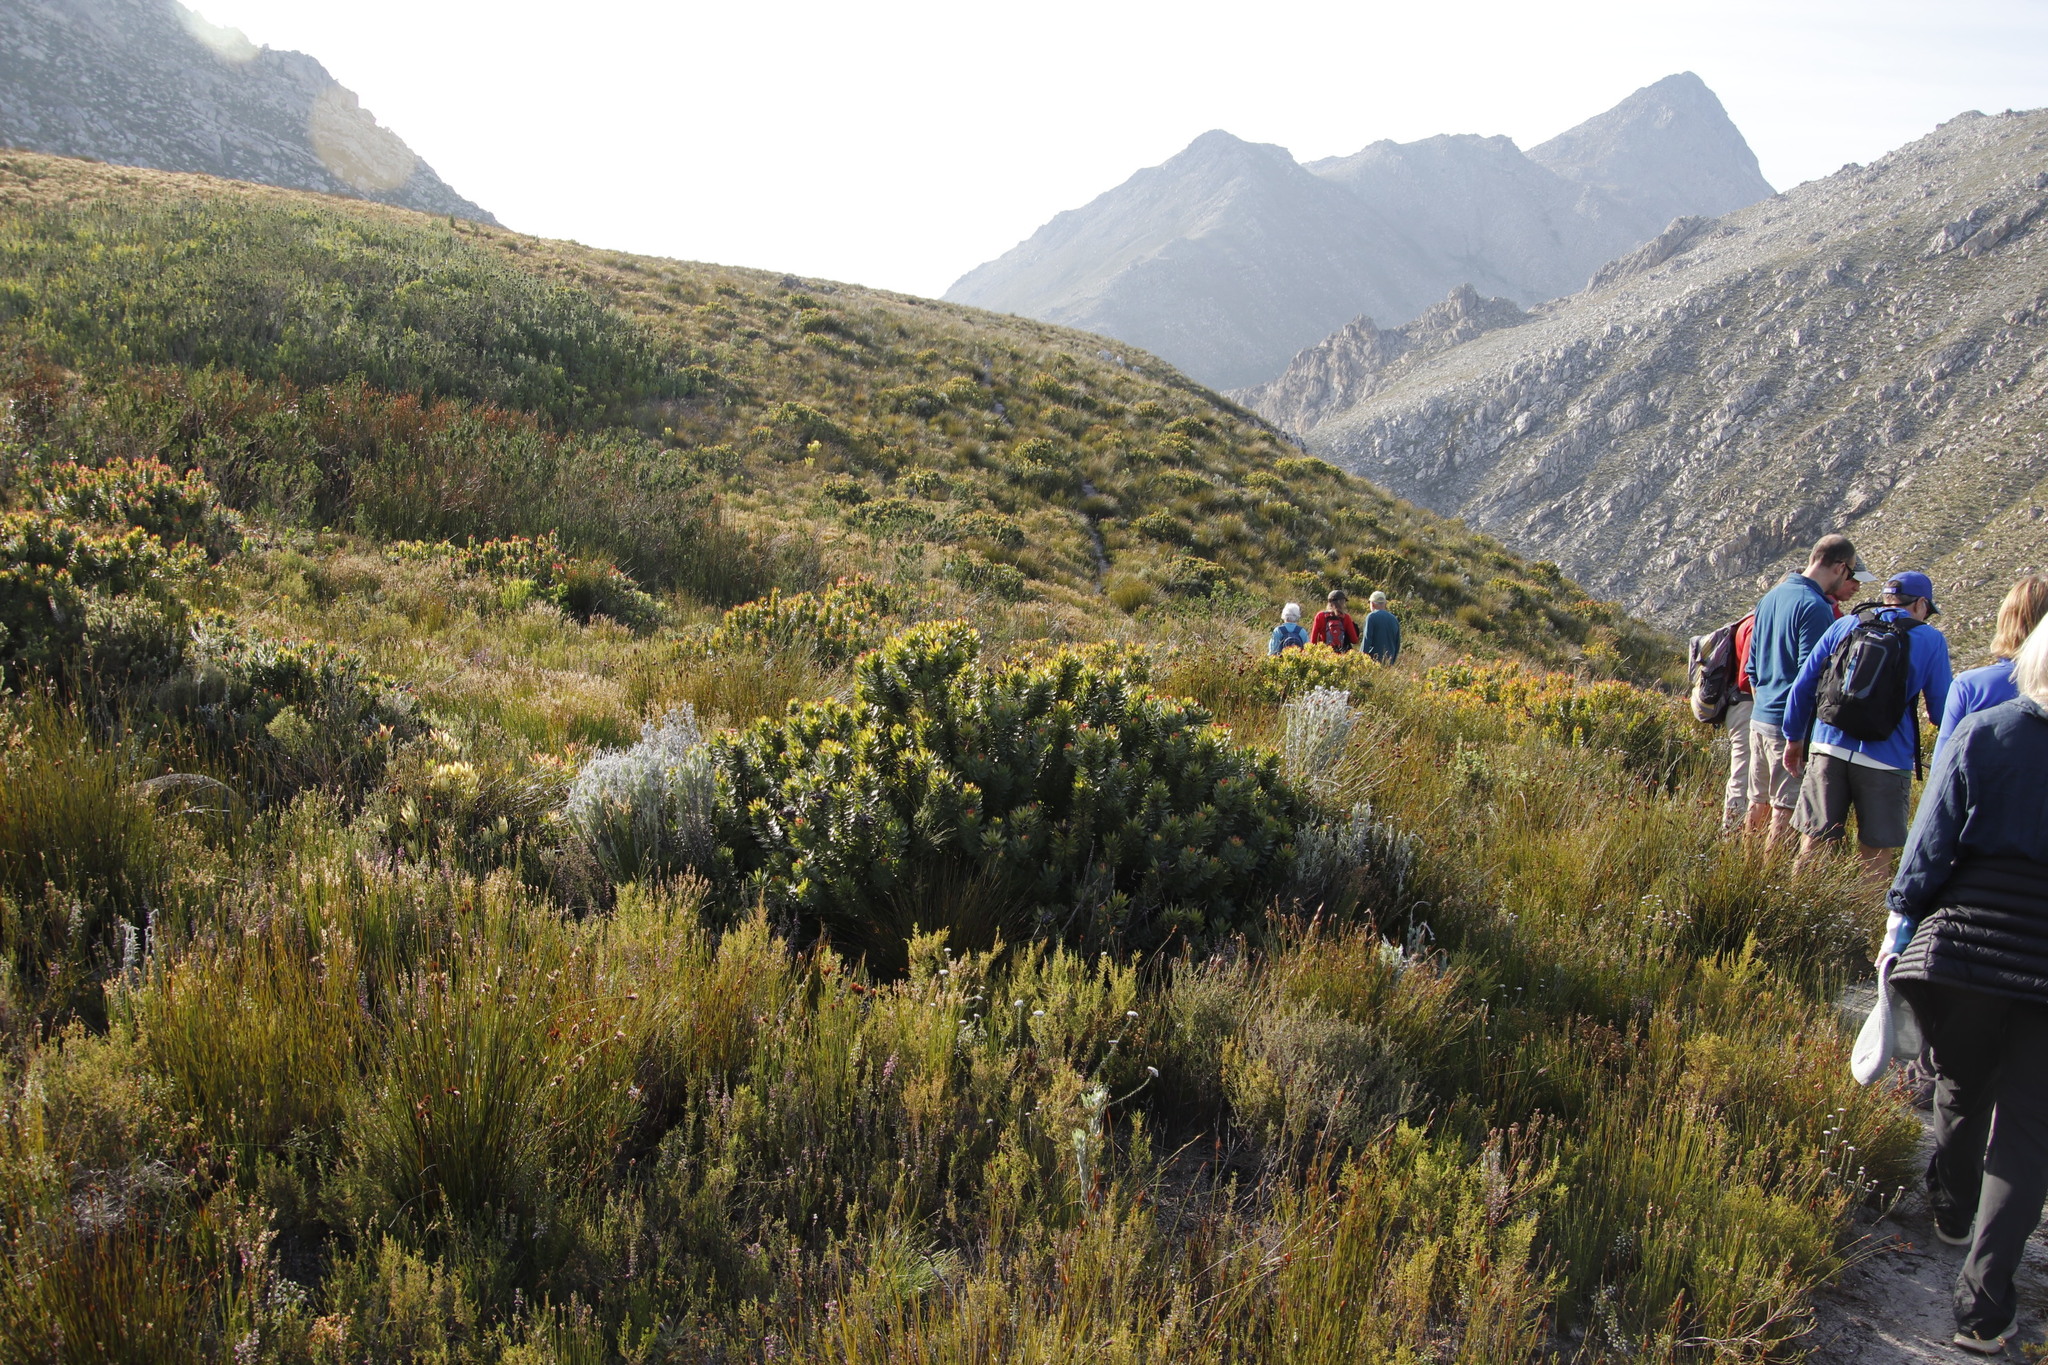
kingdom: Plantae
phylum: Tracheophyta
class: Magnoliopsida
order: Proteales
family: Proteaceae
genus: Mimetes
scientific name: Mimetes cucullatus
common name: Common pagoda
